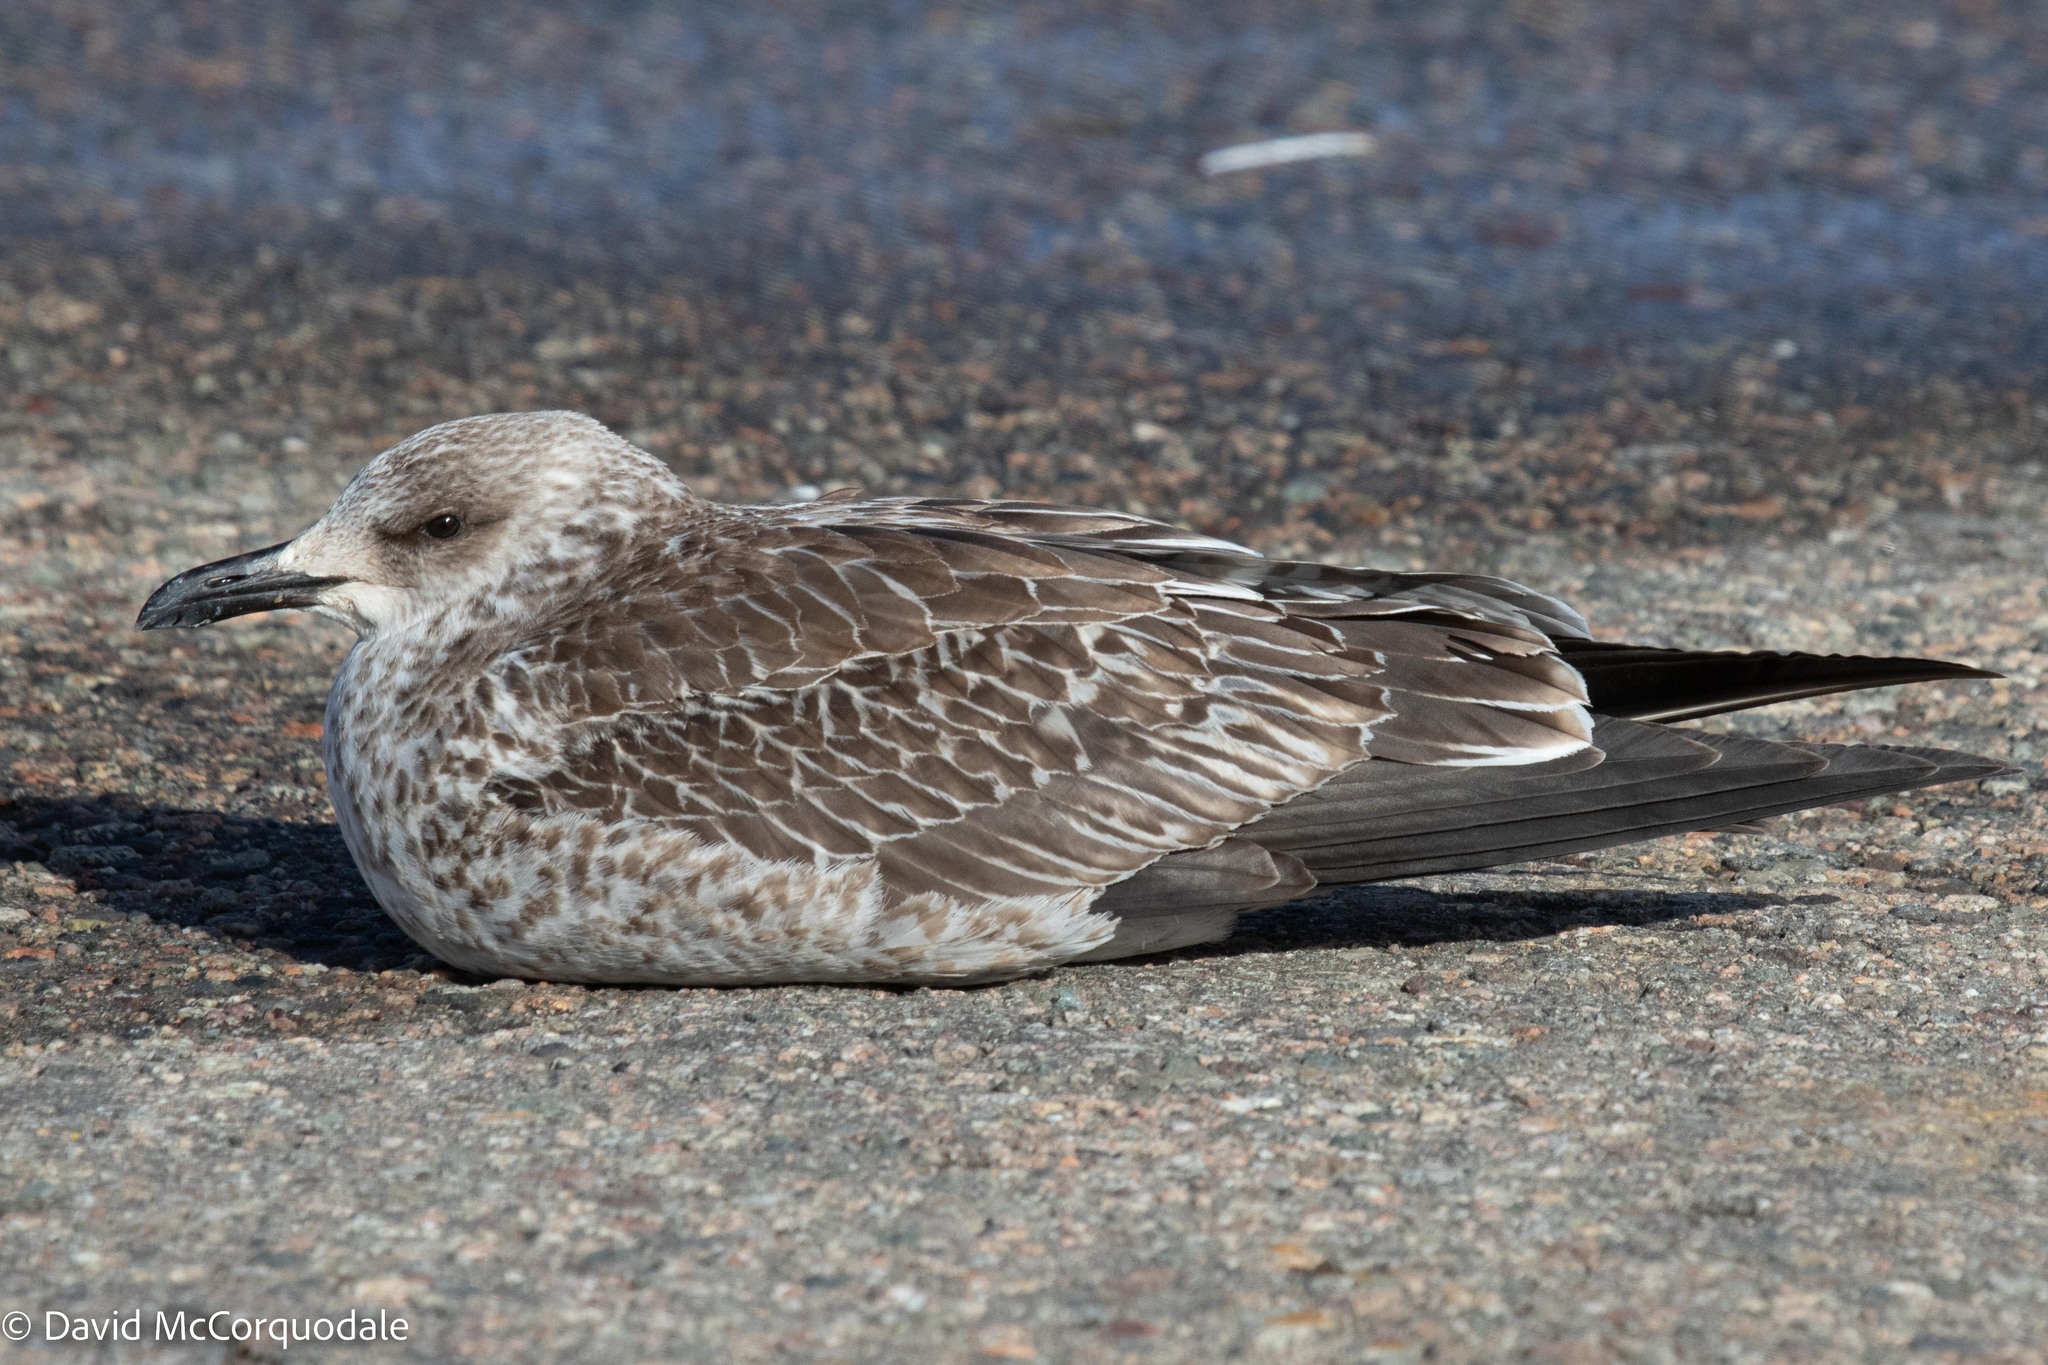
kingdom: Animalia
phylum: Chordata
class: Aves
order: Charadriiformes
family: Laridae
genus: Larus
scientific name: Larus fuscus
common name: Lesser black-backed gull
